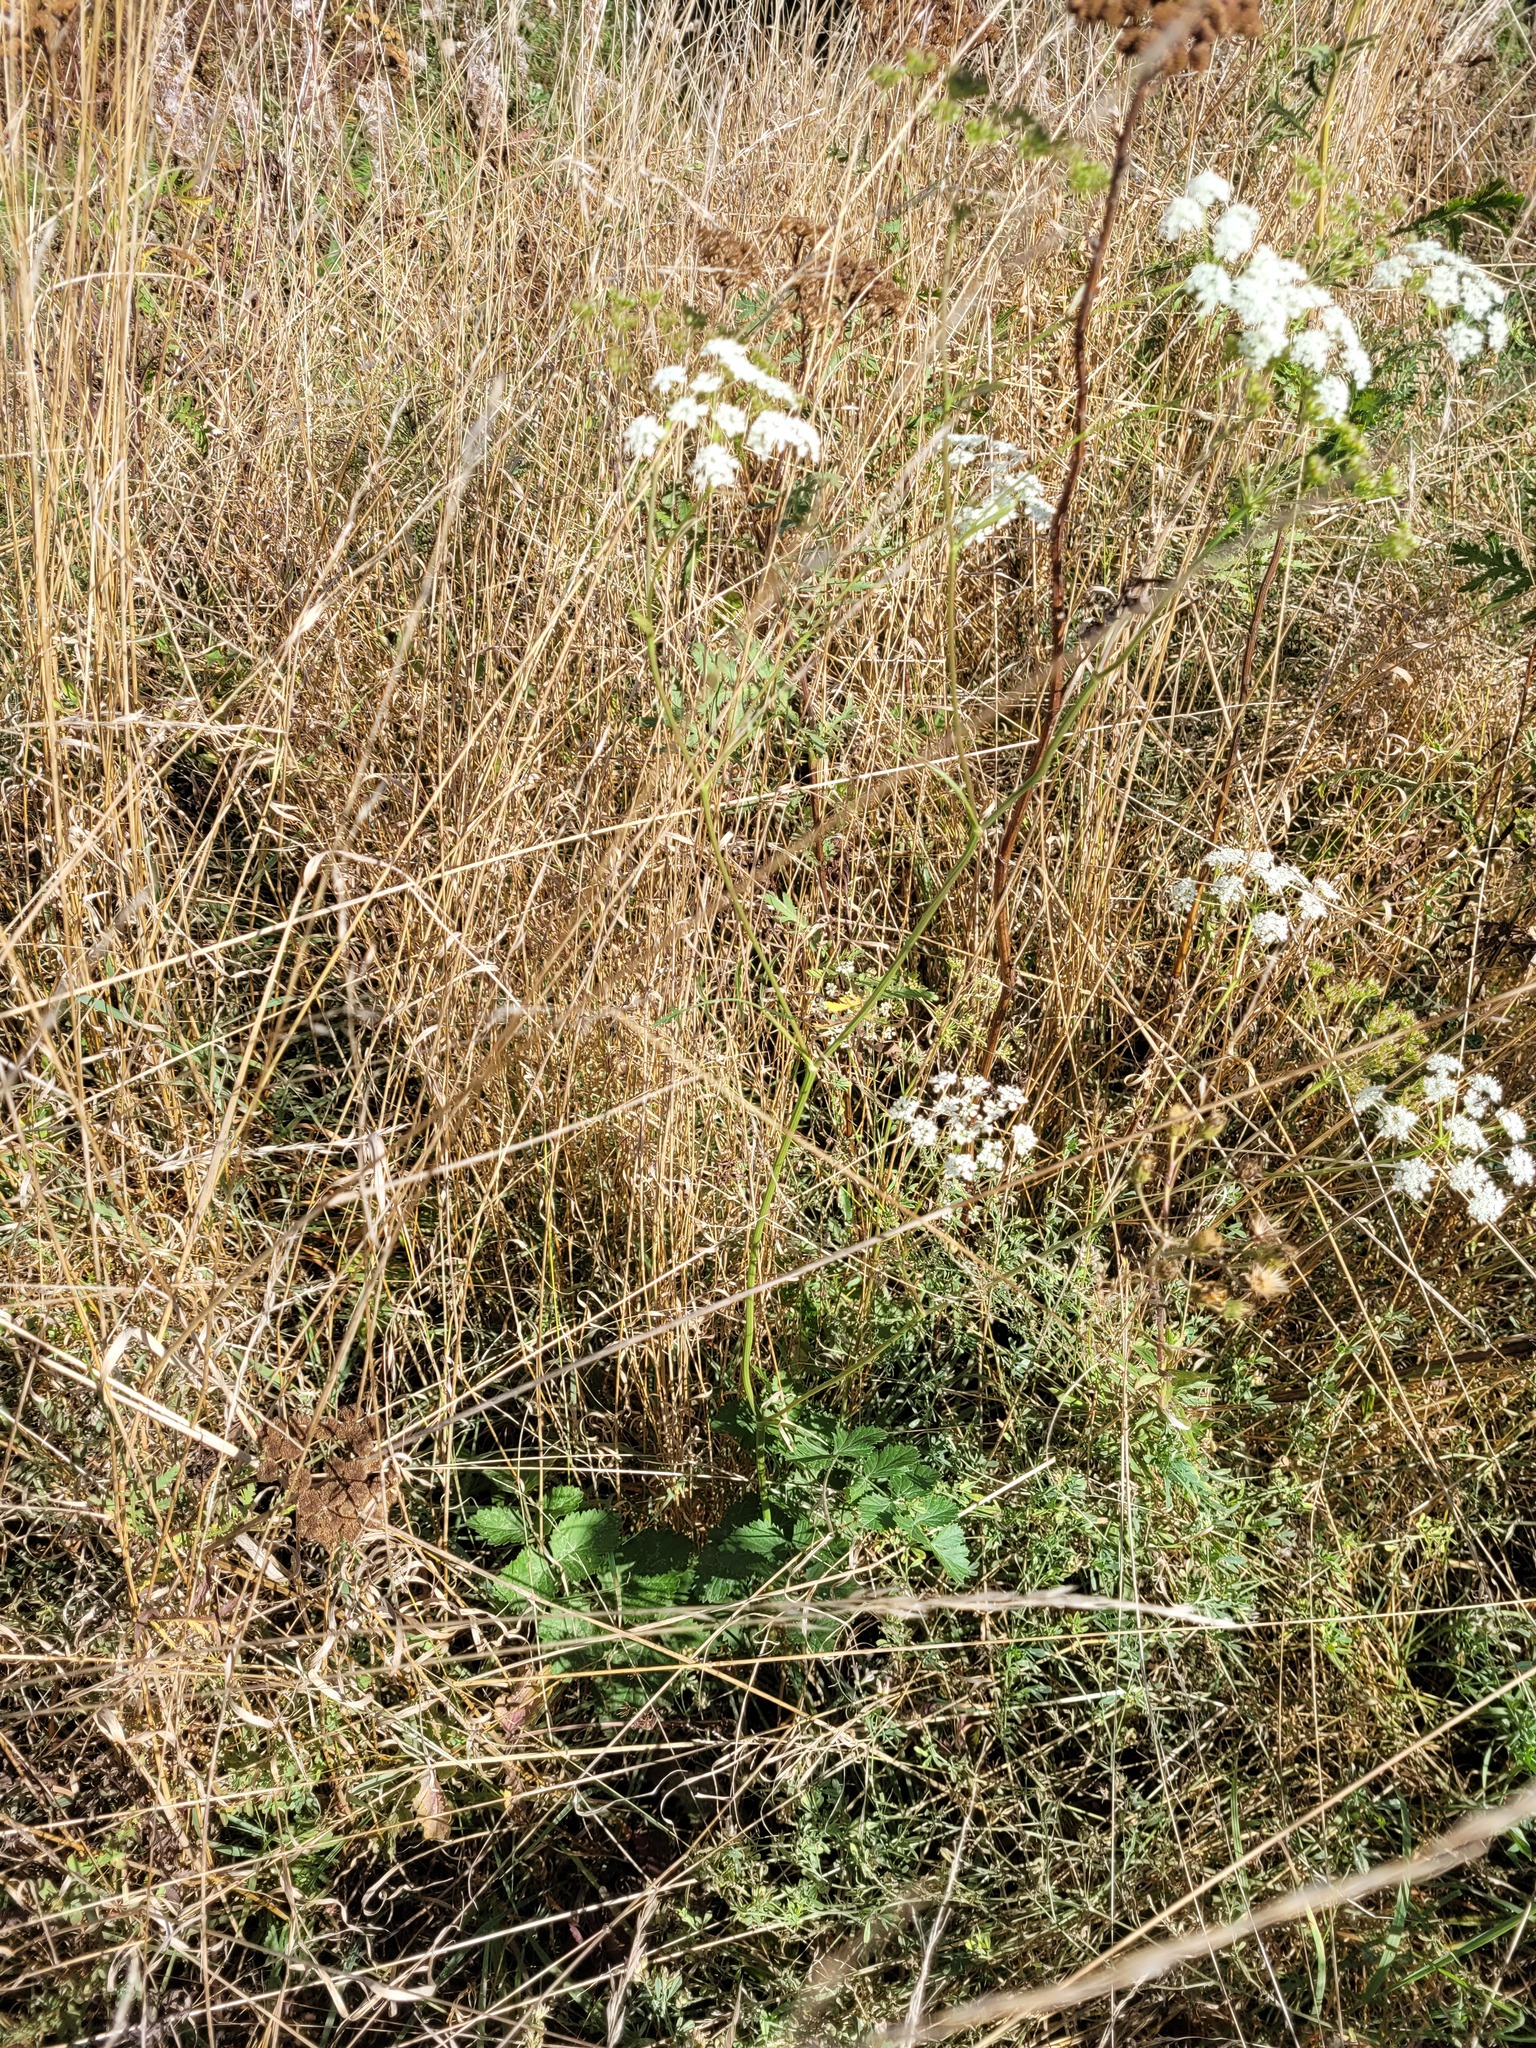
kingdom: Plantae
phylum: Tracheophyta
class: Magnoliopsida
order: Apiales
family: Apiaceae
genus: Pimpinella
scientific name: Pimpinella saxifraga
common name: Burnet-saxifrage
